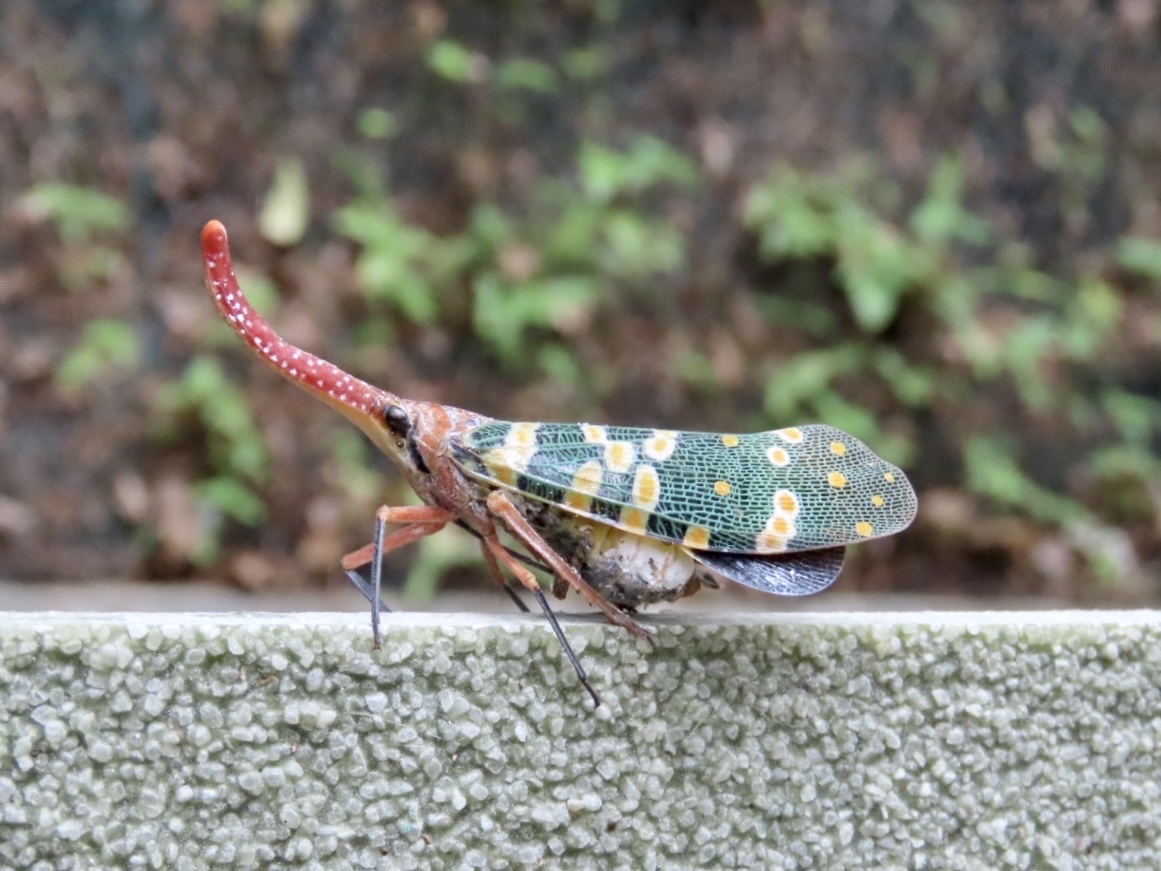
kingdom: Animalia
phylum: Arthropoda
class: Insecta
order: Hemiptera
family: Fulgoridae
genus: Pyrops
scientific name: Pyrops candelaria
